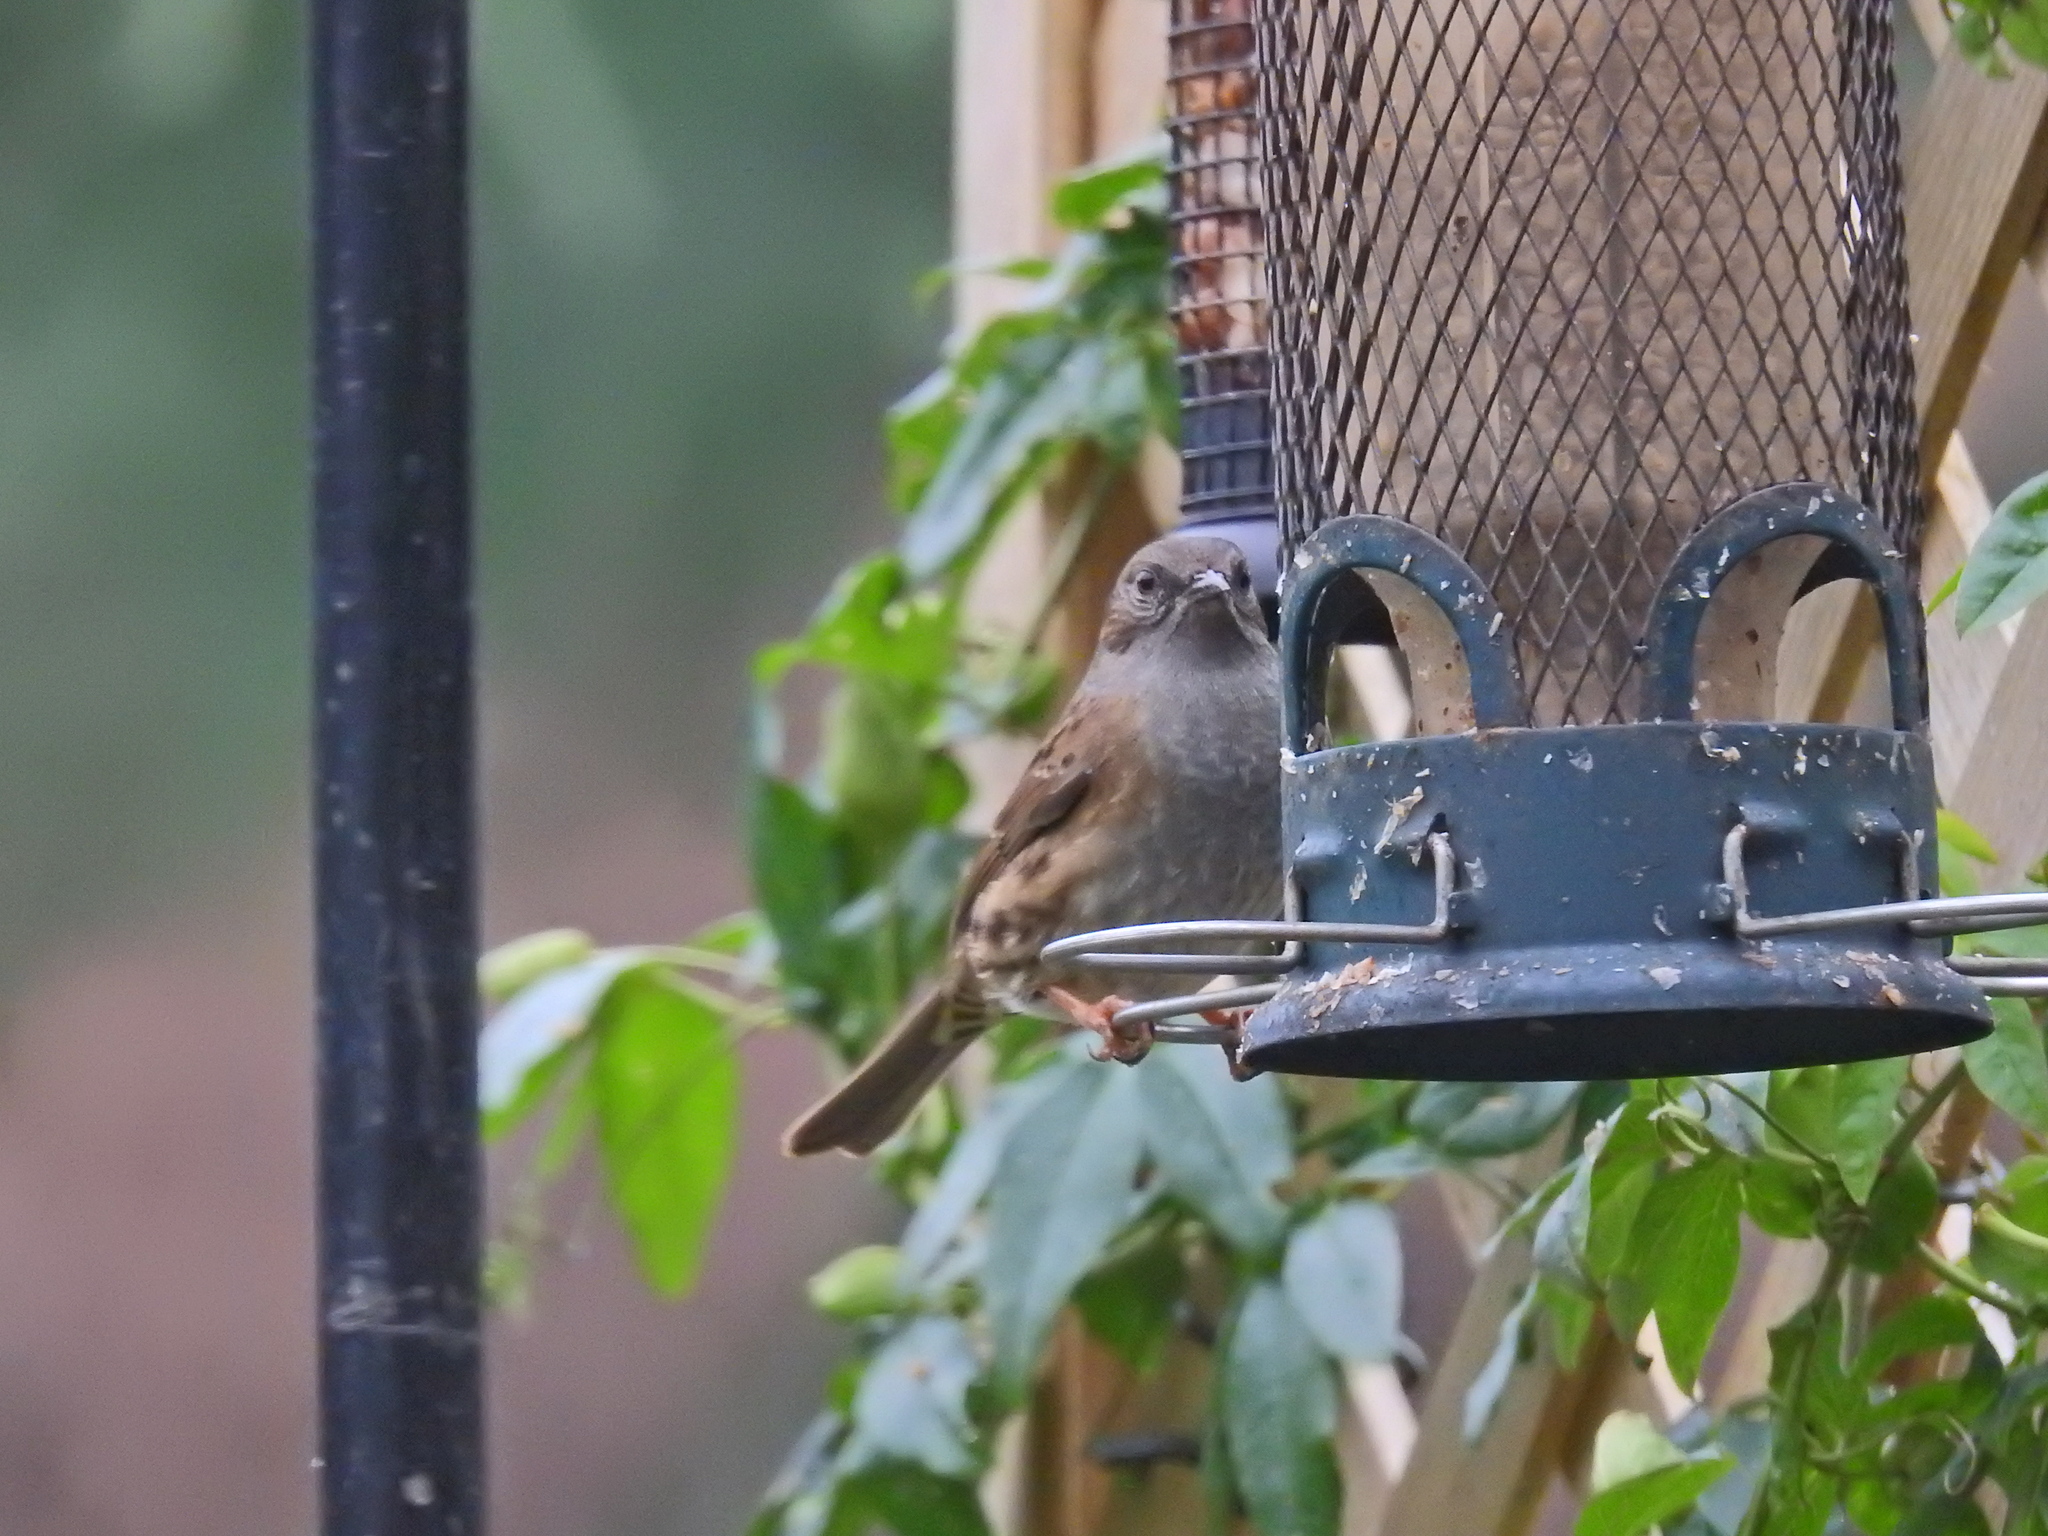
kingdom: Animalia
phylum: Chordata
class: Aves
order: Passeriformes
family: Prunellidae
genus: Prunella
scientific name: Prunella modularis
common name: Dunnock
